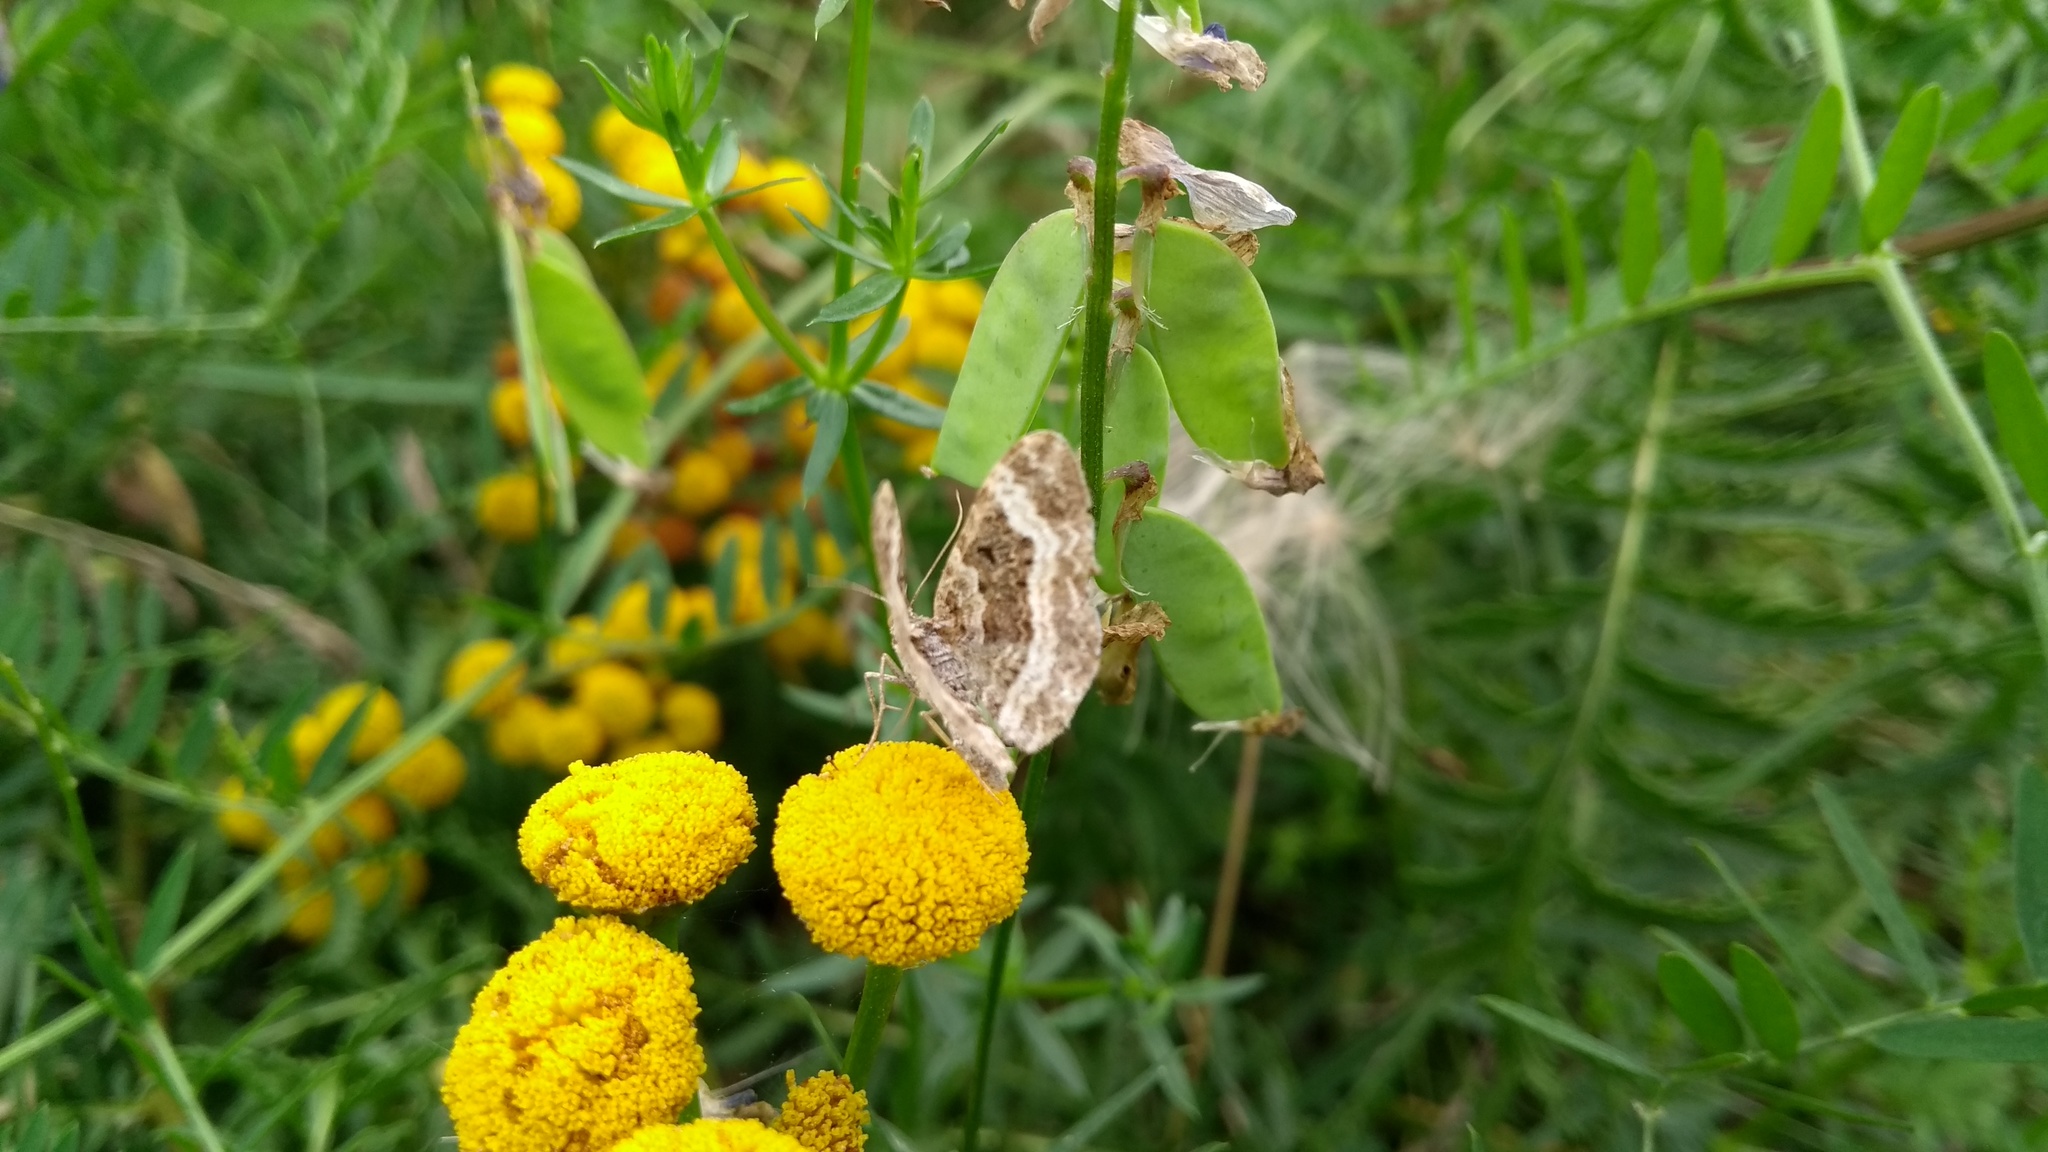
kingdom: Animalia
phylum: Arthropoda
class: Insecta
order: Lepidoptera
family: Geometridae
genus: Epirrhoe
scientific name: Epirrhoe alternata
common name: Common carpet
